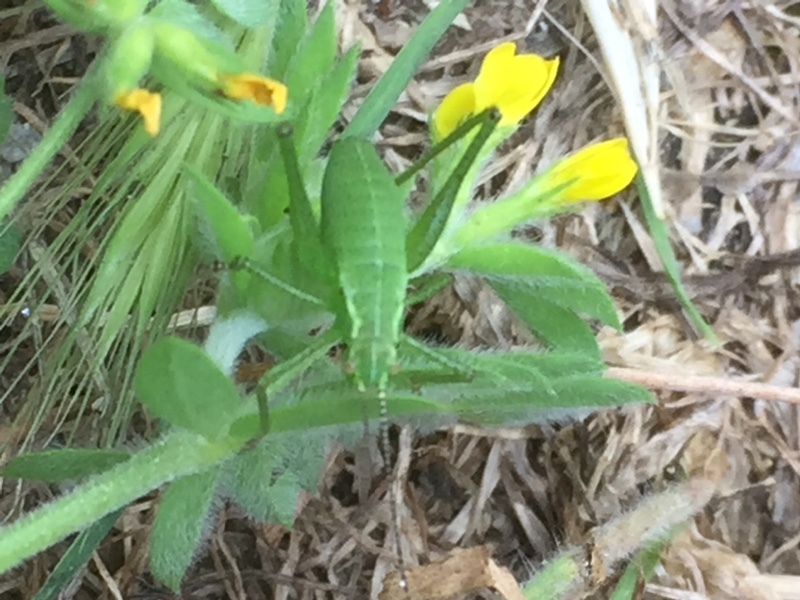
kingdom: Plantae
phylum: Tracheophyta
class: Magnoliopsida
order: Fabales
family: Fabaceae
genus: Ornithopus
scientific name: Ornithopus compressus
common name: Yellow serradella
